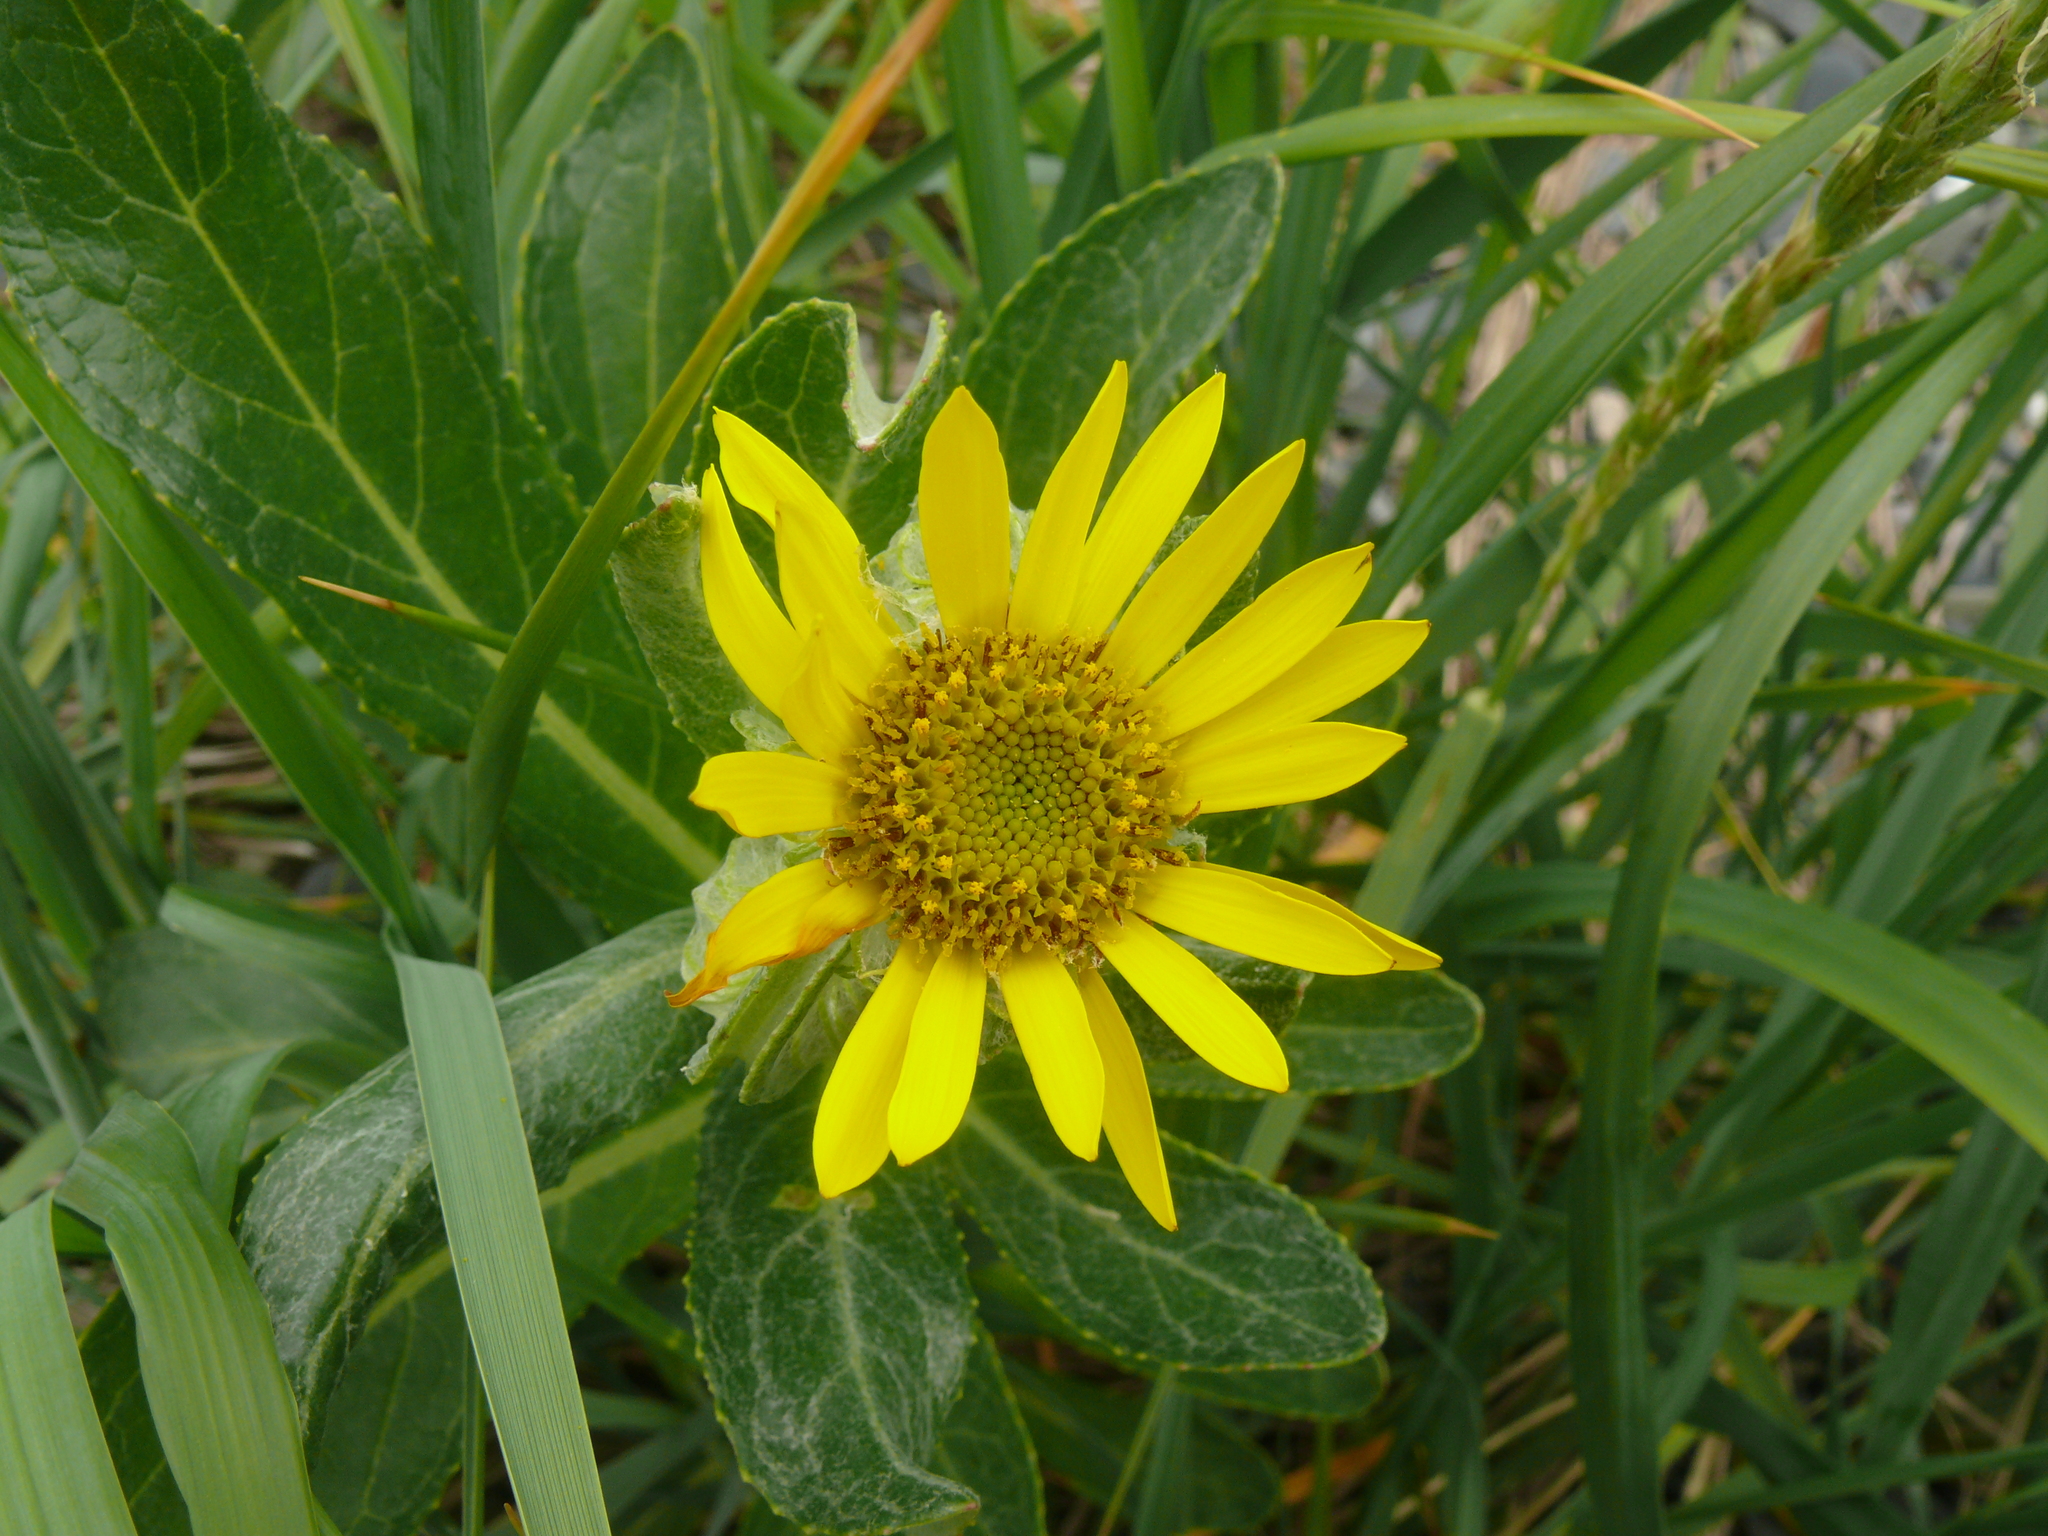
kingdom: Plantae
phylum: Tracheophyta
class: Magnoliopsida
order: Asterales
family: Asteraceae
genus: Jacobaea
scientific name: Jacobaea pseudoarnica
